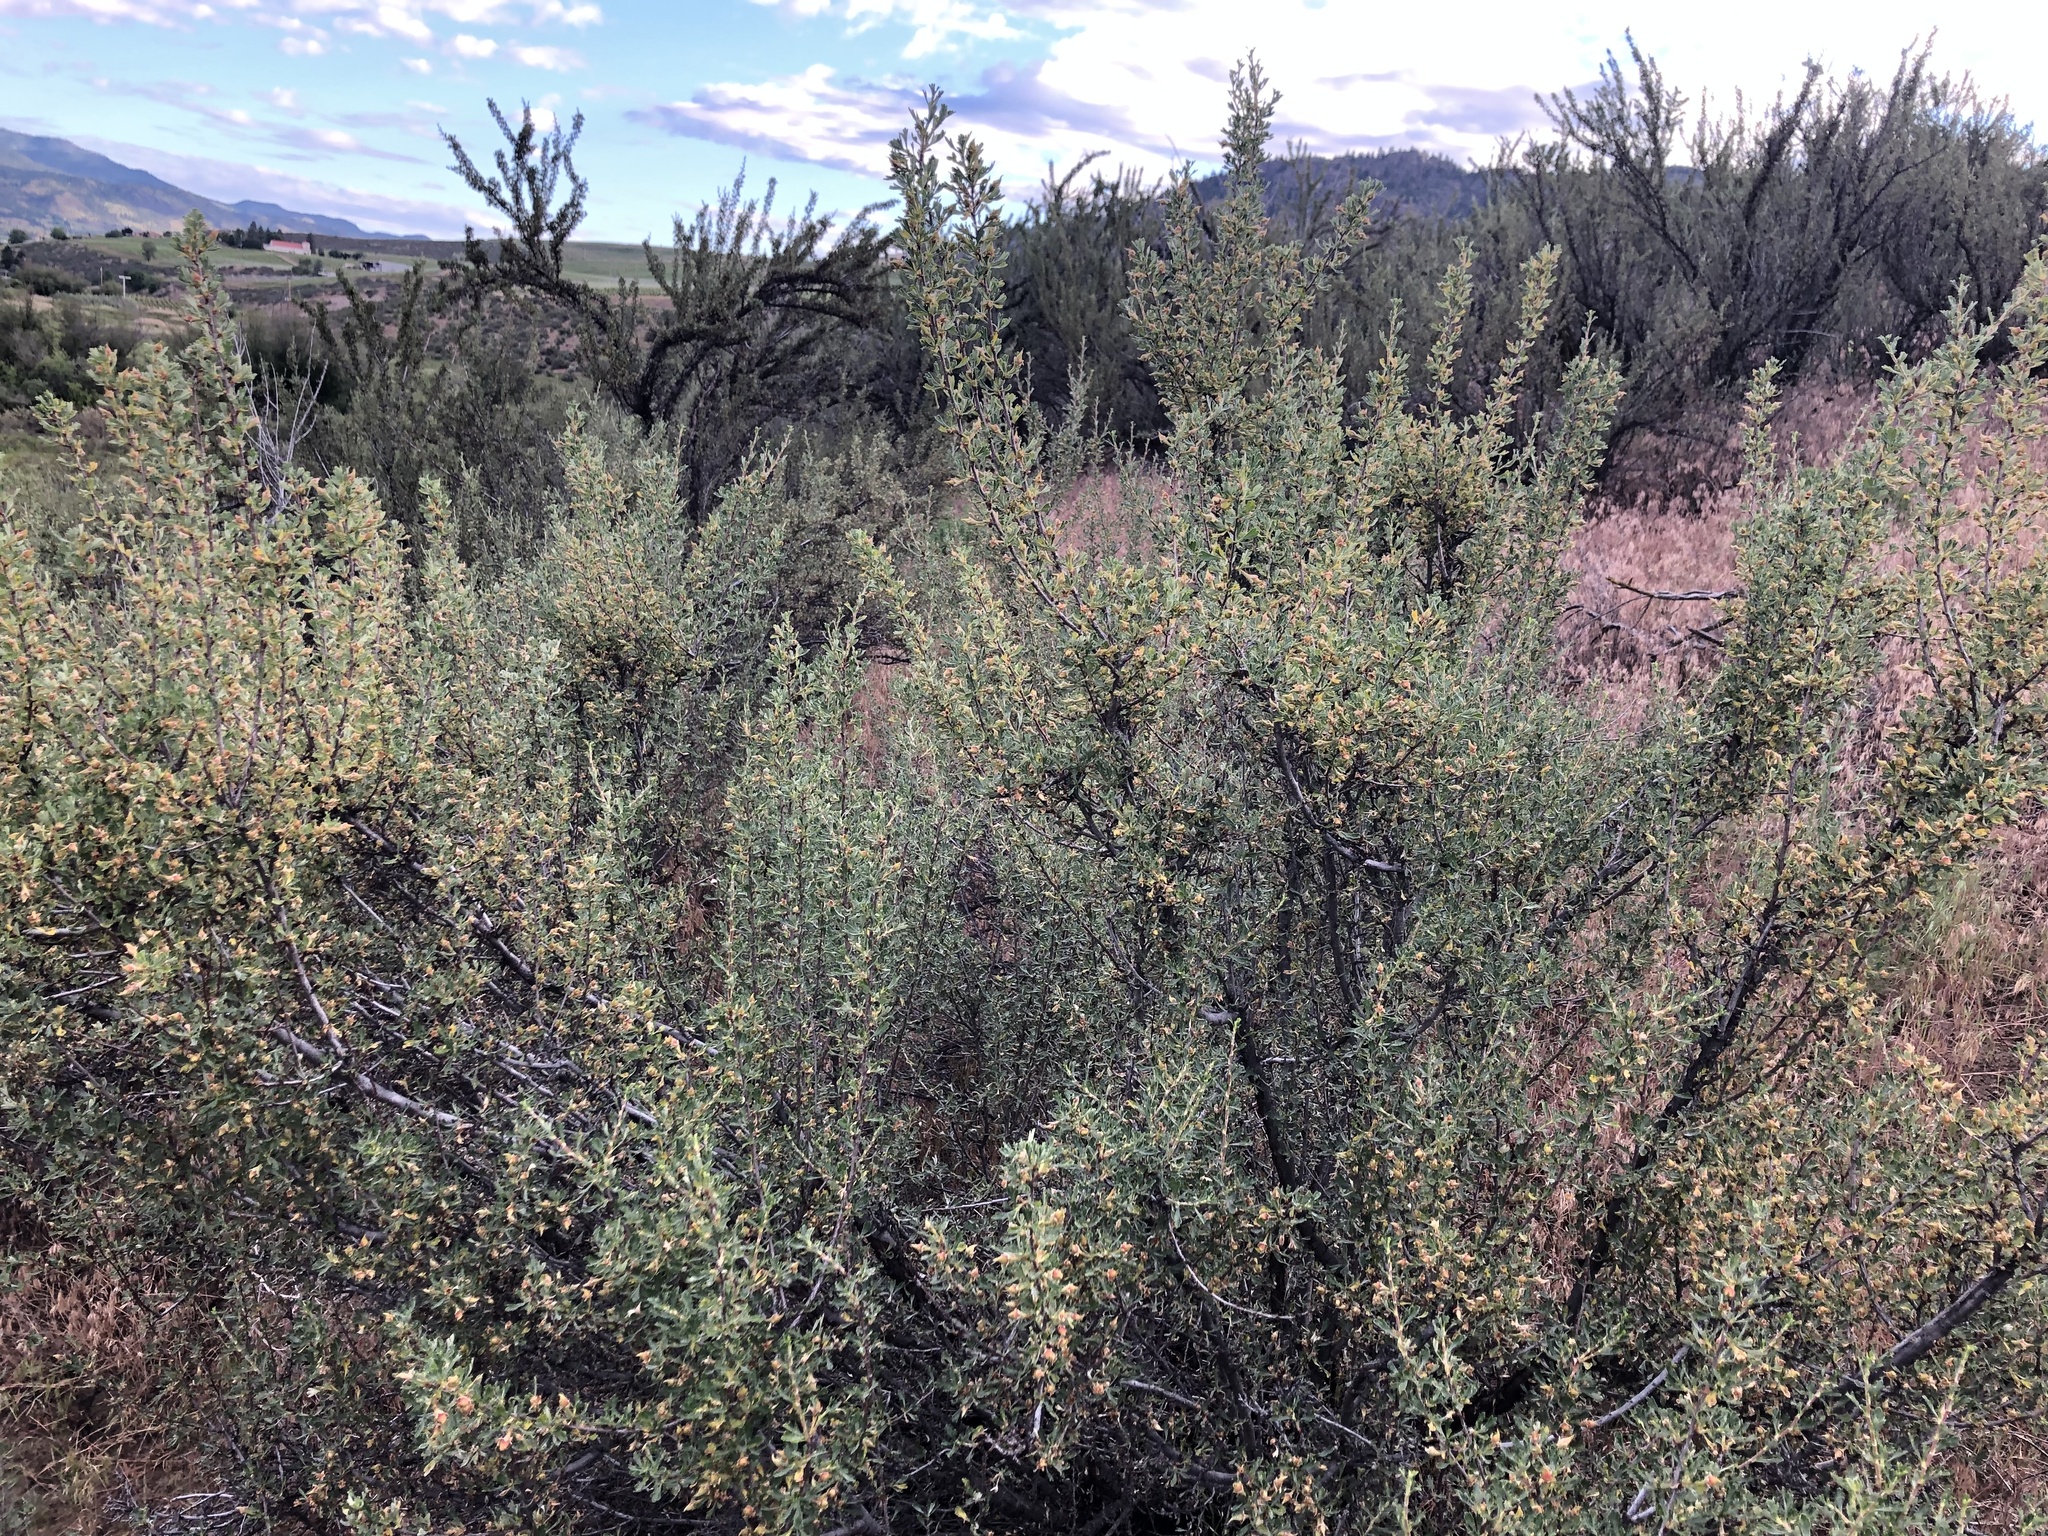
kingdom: Plantae
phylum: Tracheophyta
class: Magnoliopsida
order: Rosales
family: Rosaceae
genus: Purshia
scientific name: Purshia tridentata
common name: Antelope bitterbrush
